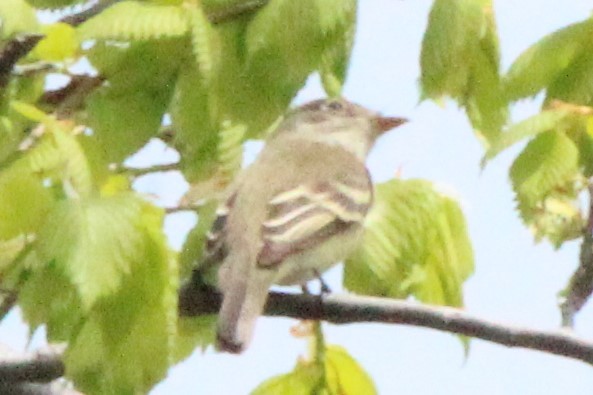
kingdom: Animalia
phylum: Chordata
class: Aves
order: Passeriformes
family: Tyrannidae
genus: Empidonax
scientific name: Empidonax alnorum
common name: Alder flycatcher
